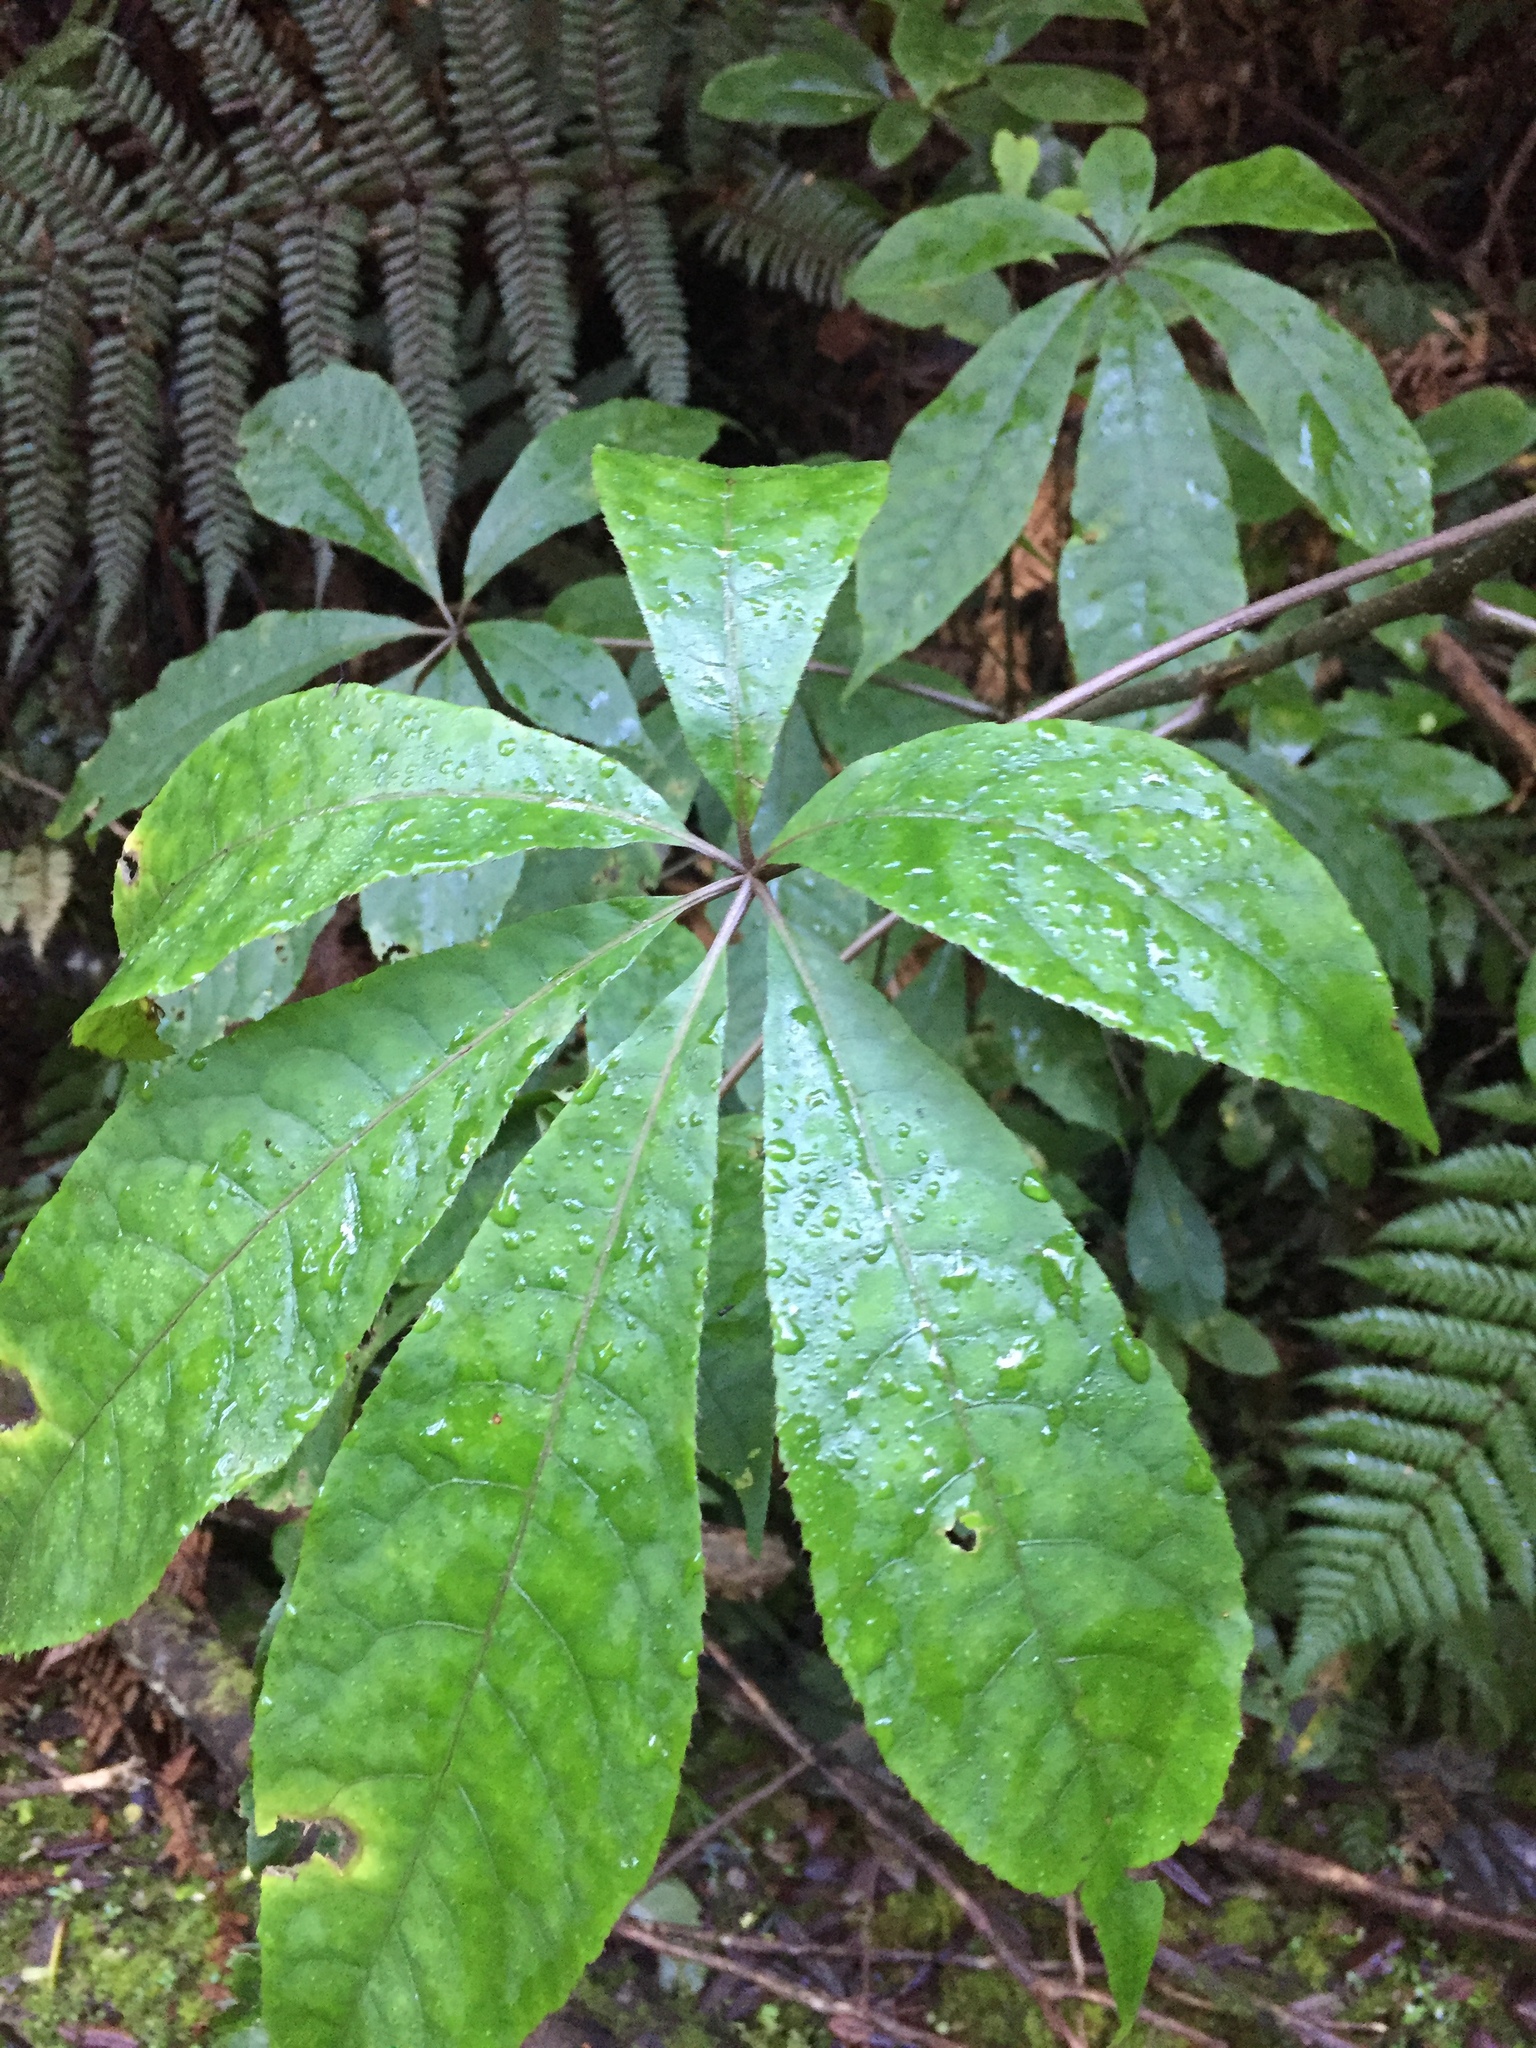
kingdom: Plantae
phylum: Tracheophyta
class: Magnoliopsida
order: Apiales
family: Araliaceae
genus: Schefflera
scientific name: Schefflera digitata
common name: Pate
